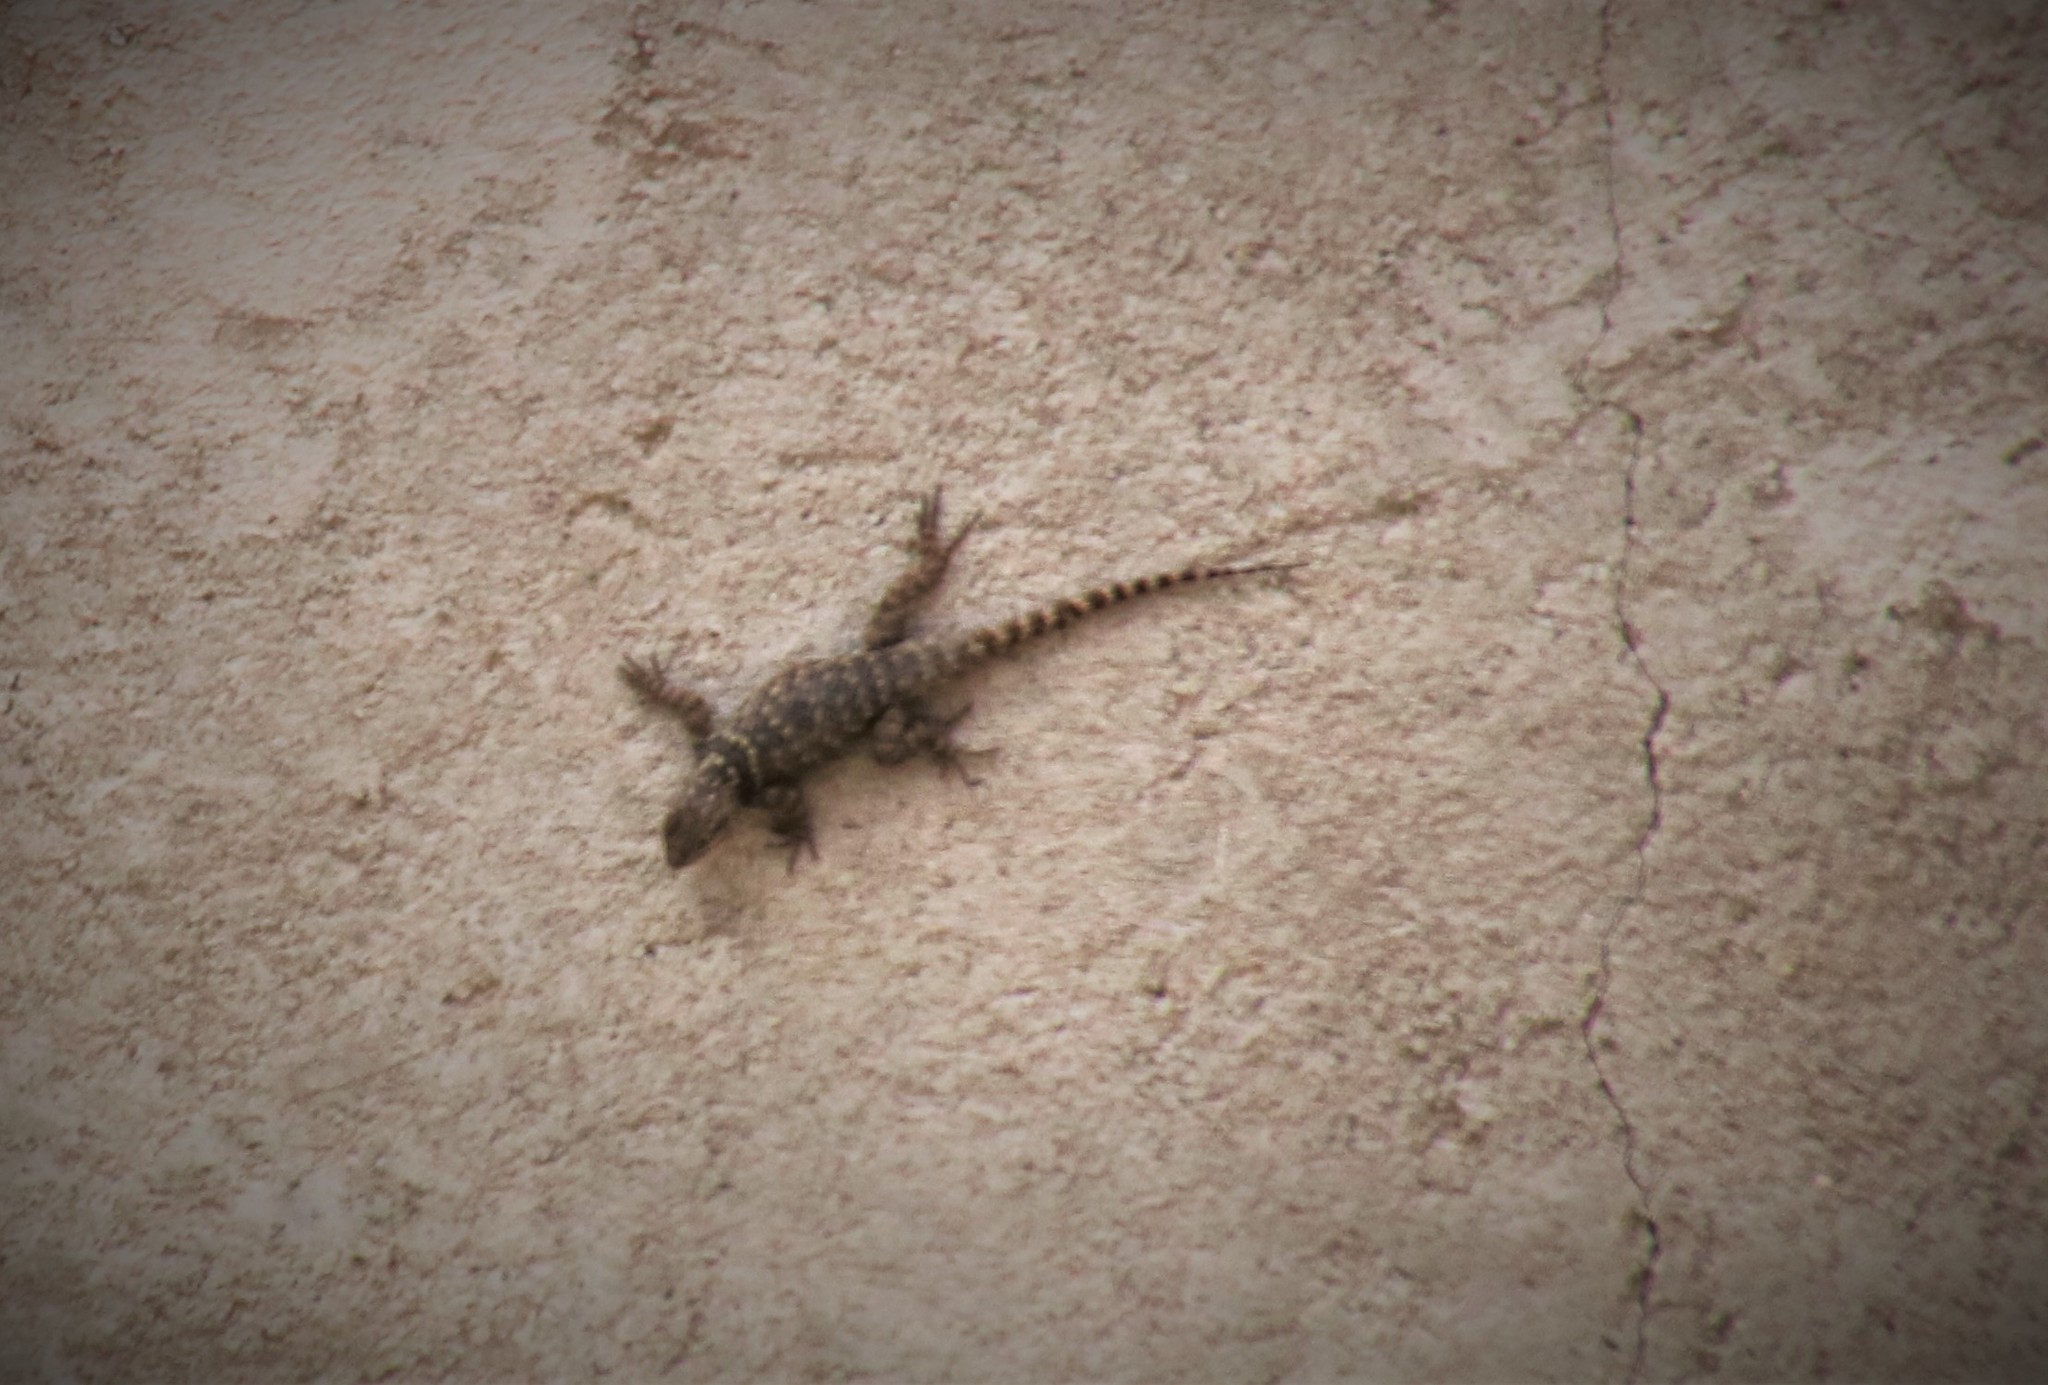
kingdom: Animalia
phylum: Chordata
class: Squamata
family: Phrynosomatidae
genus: Sceloporus
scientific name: Sceloporus torquatus
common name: Central plateau torquate lizard [melanogaster]
